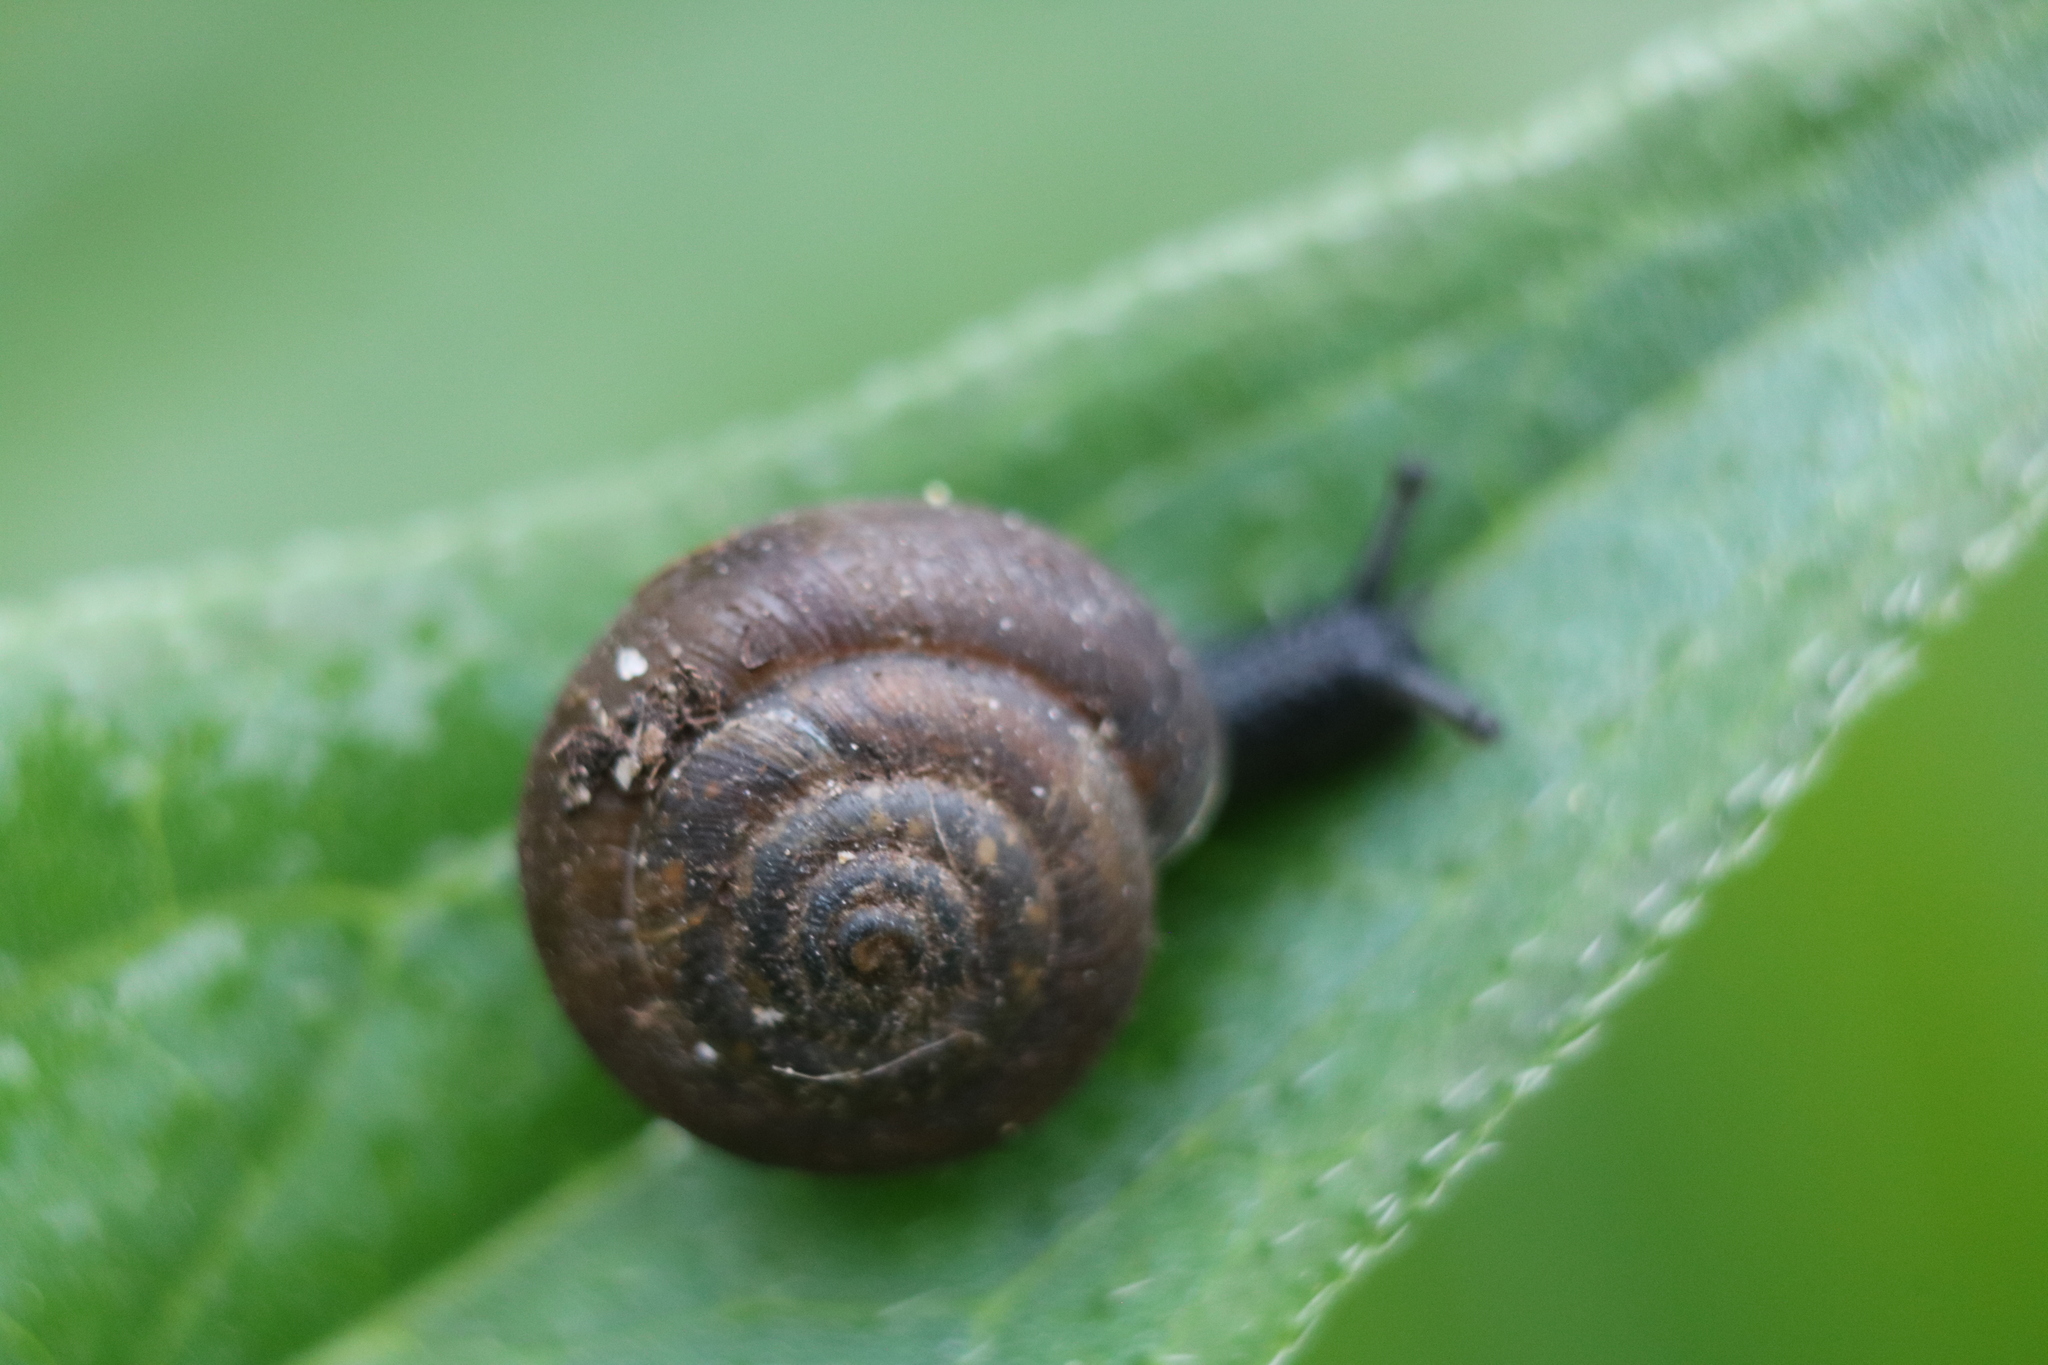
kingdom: Animalia
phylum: Mollusca
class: Gastropoda
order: Stylommatophora
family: Hygromiidae
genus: Trochulus
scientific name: Trochulus hispidus
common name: Hairy snail
